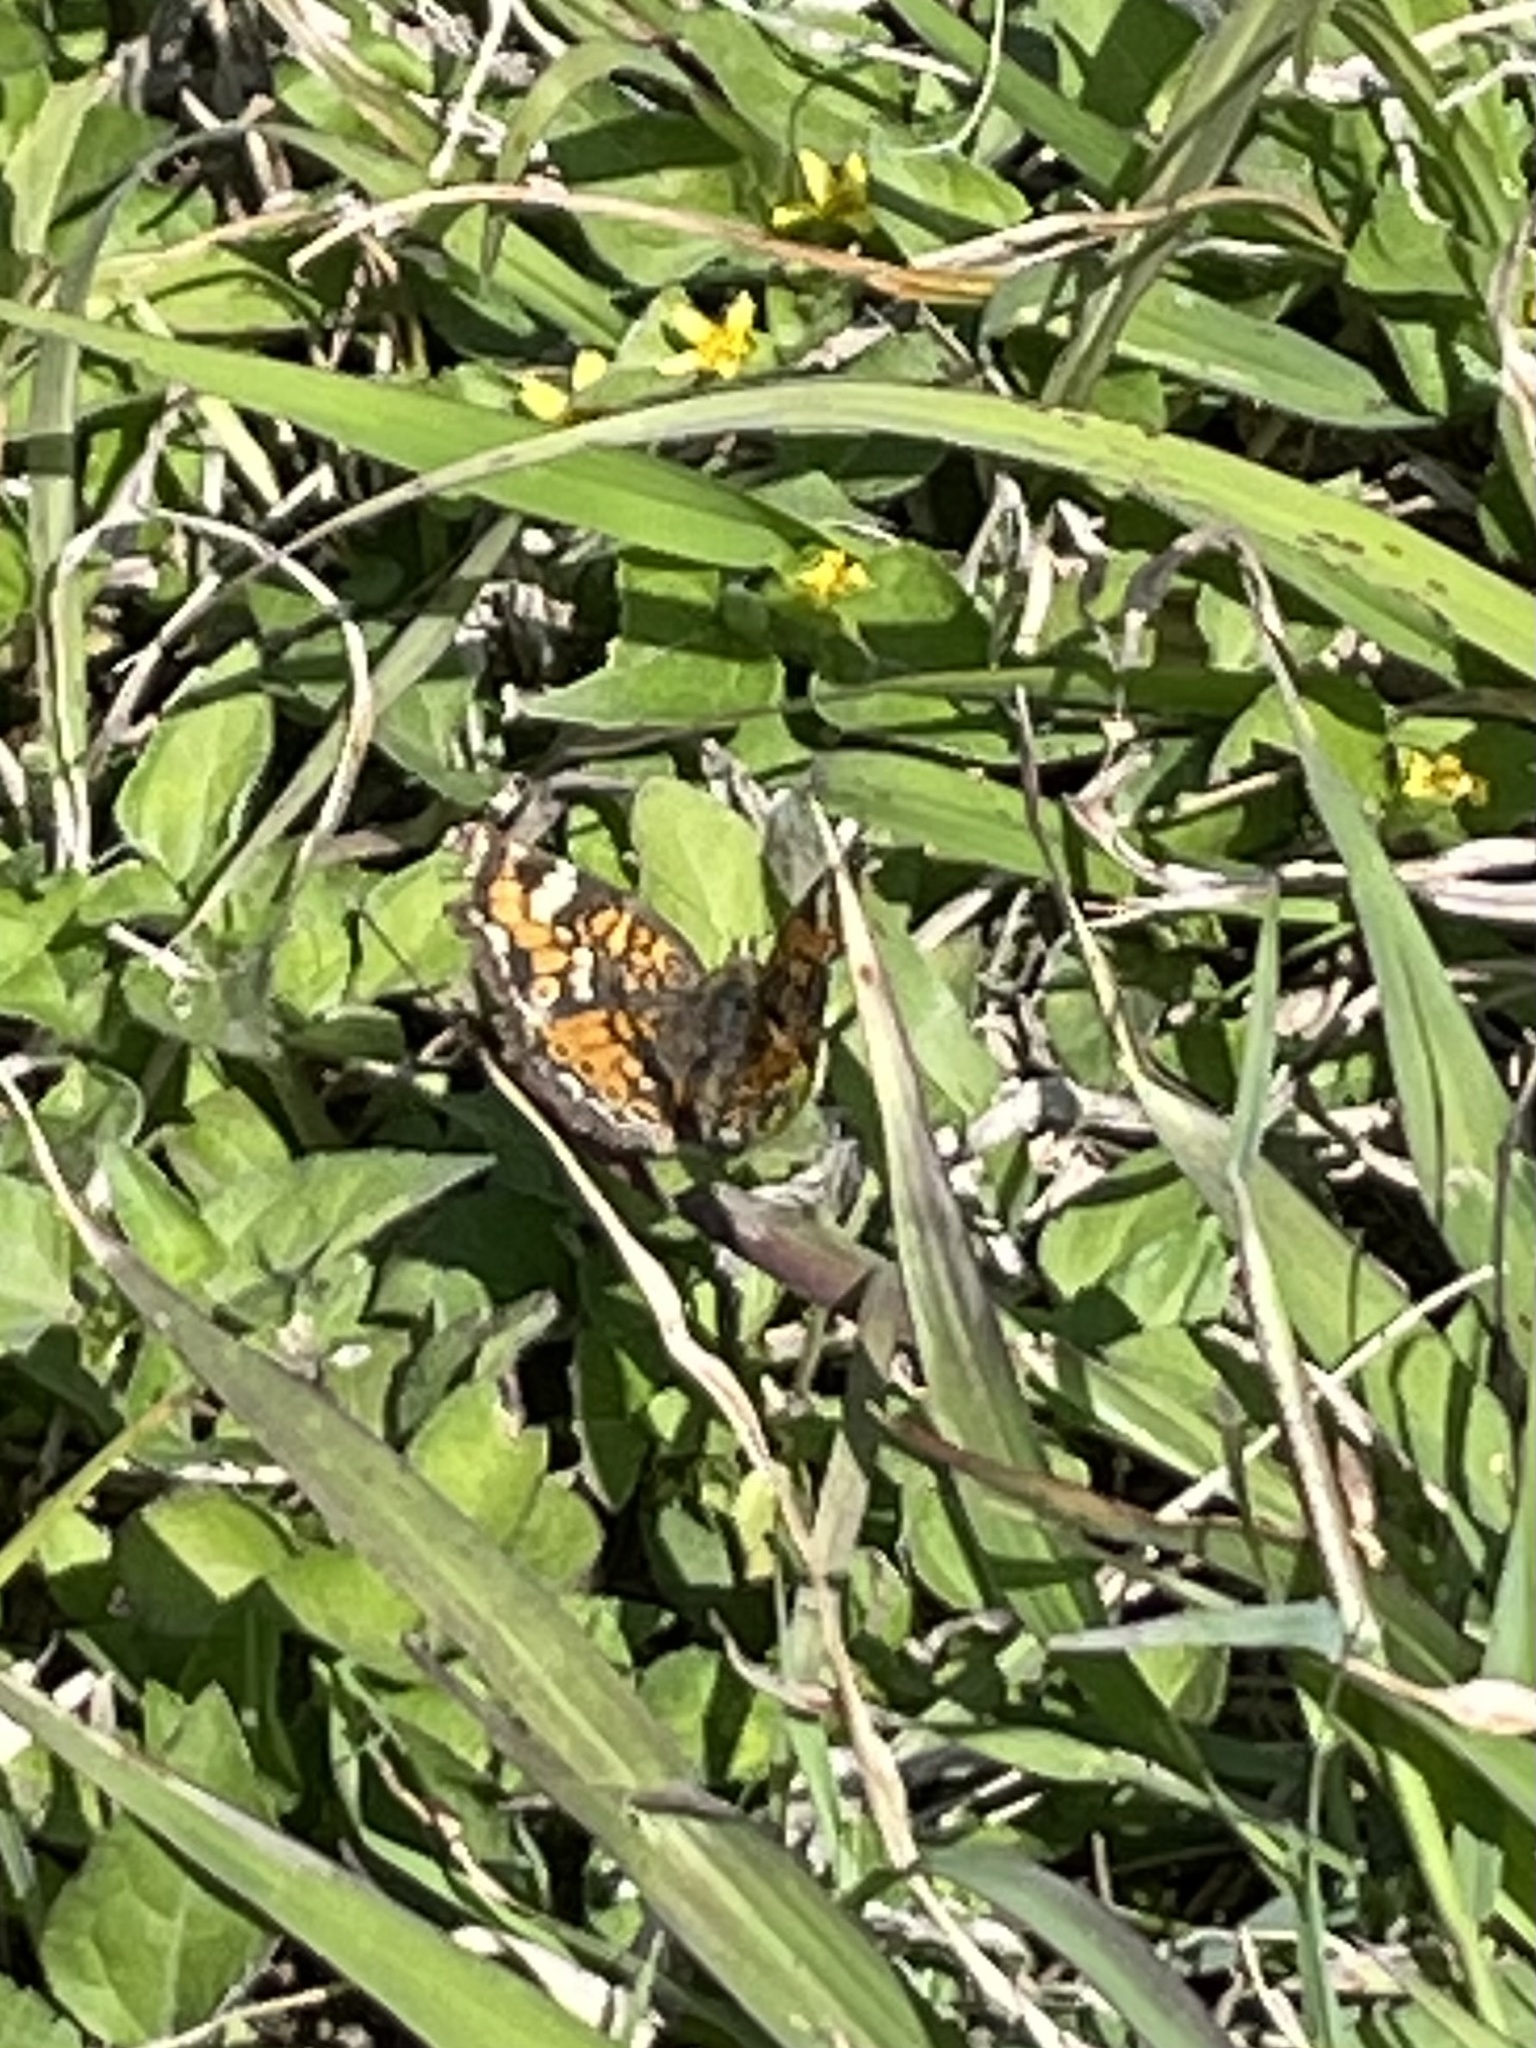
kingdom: Animalia
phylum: Arthropoda
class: Insecta
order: Lepidoptera
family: Nymphalidae
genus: Phyciodes
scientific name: Phyciodes phaon
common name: Phaon crescent
